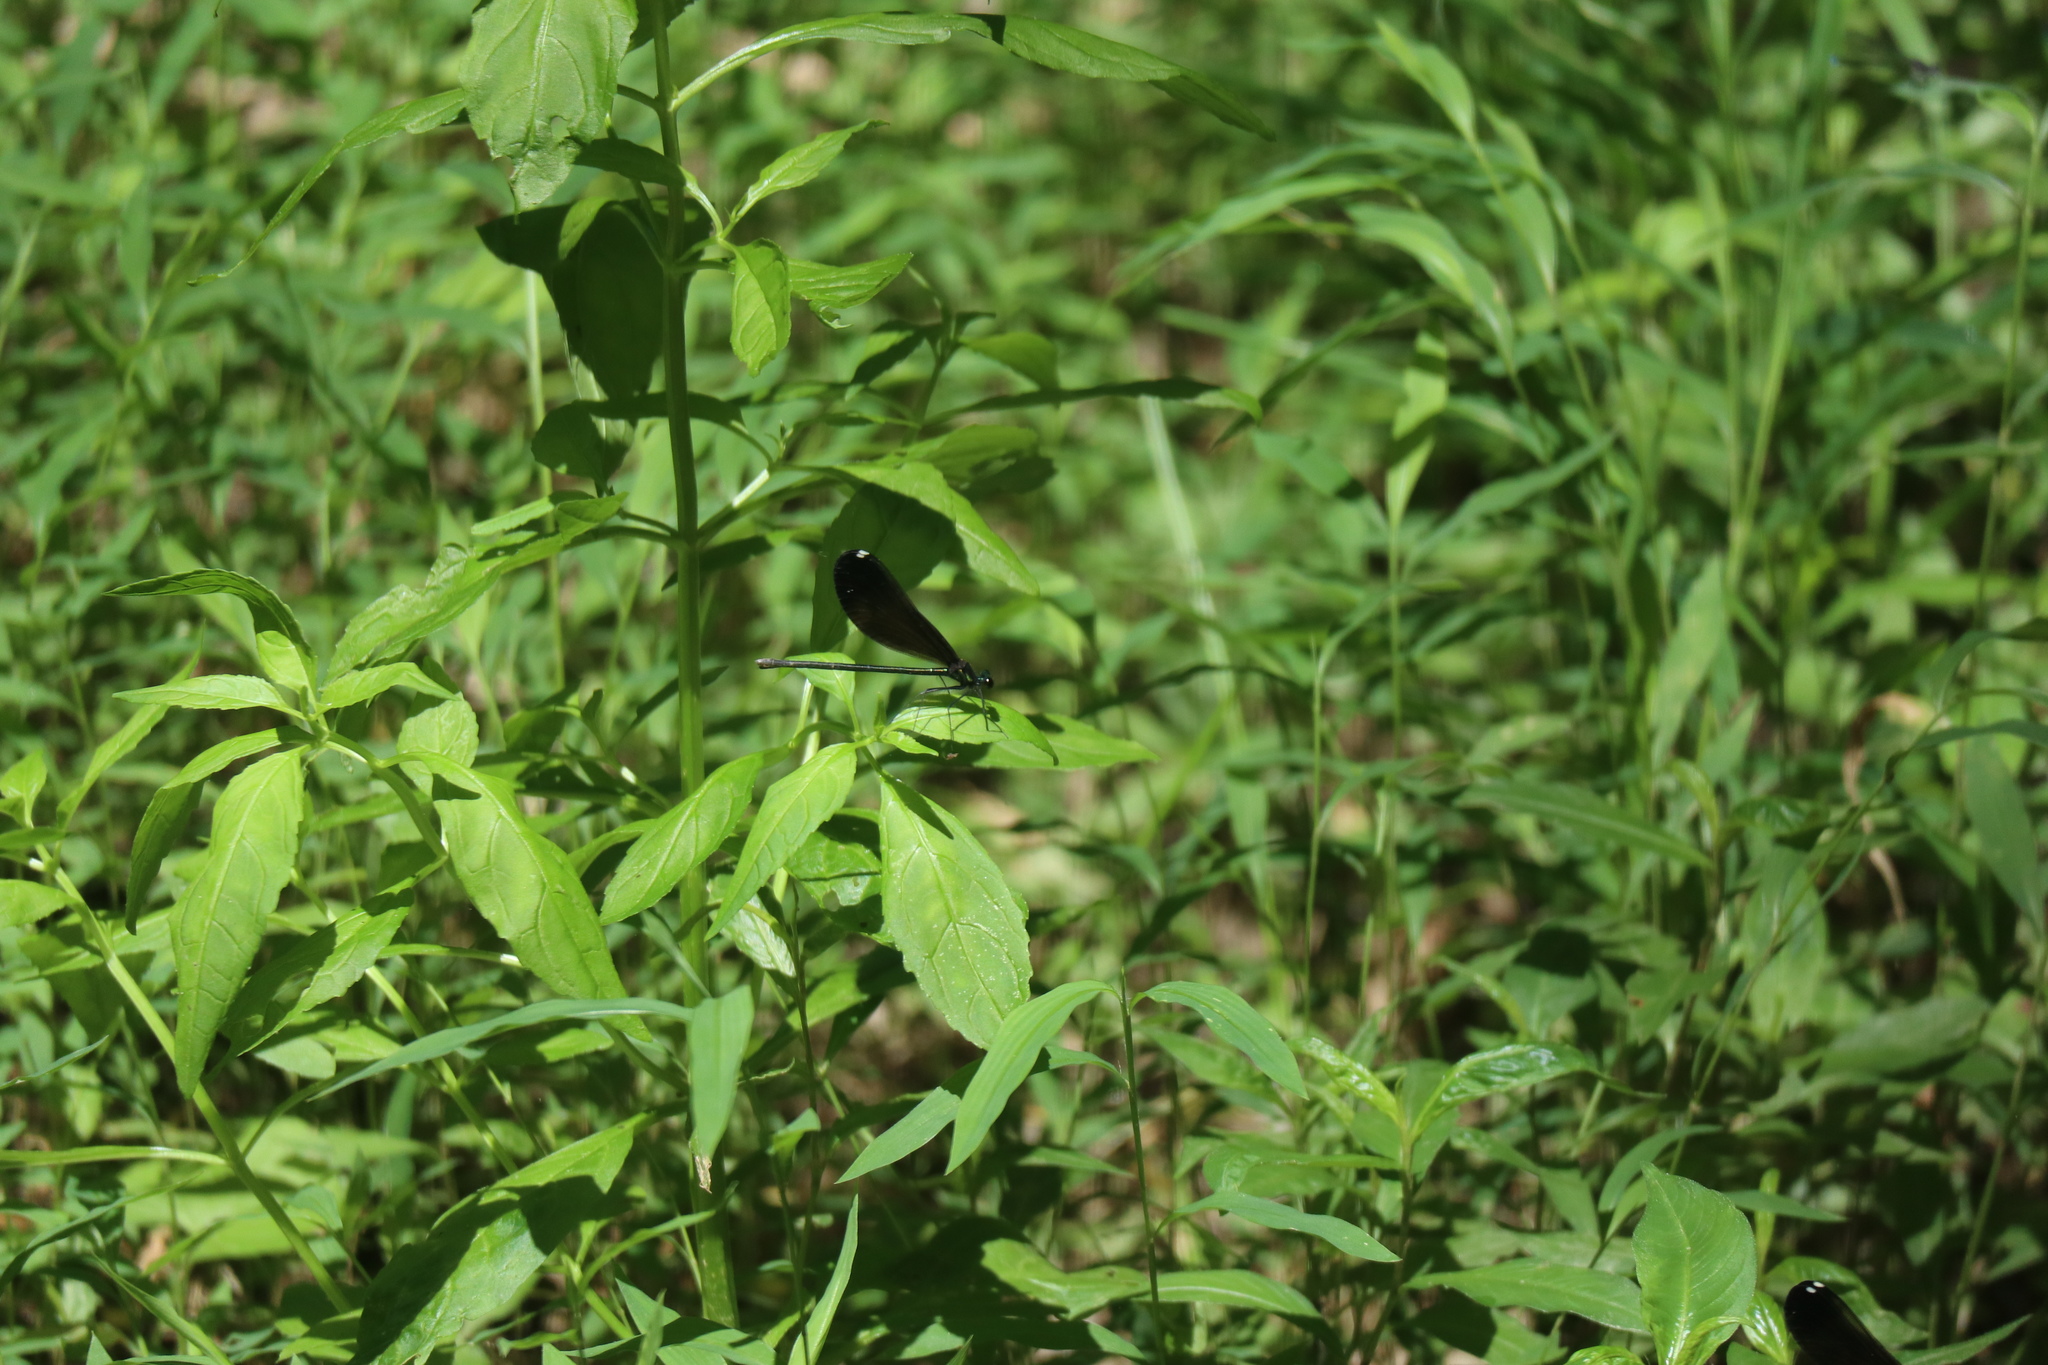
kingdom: Animalia
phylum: Arthropoda
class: Insecta
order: Odonata
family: Calopterygidae
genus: Calopteryx
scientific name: Calopteryx maculata
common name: Ebony jewelwing
